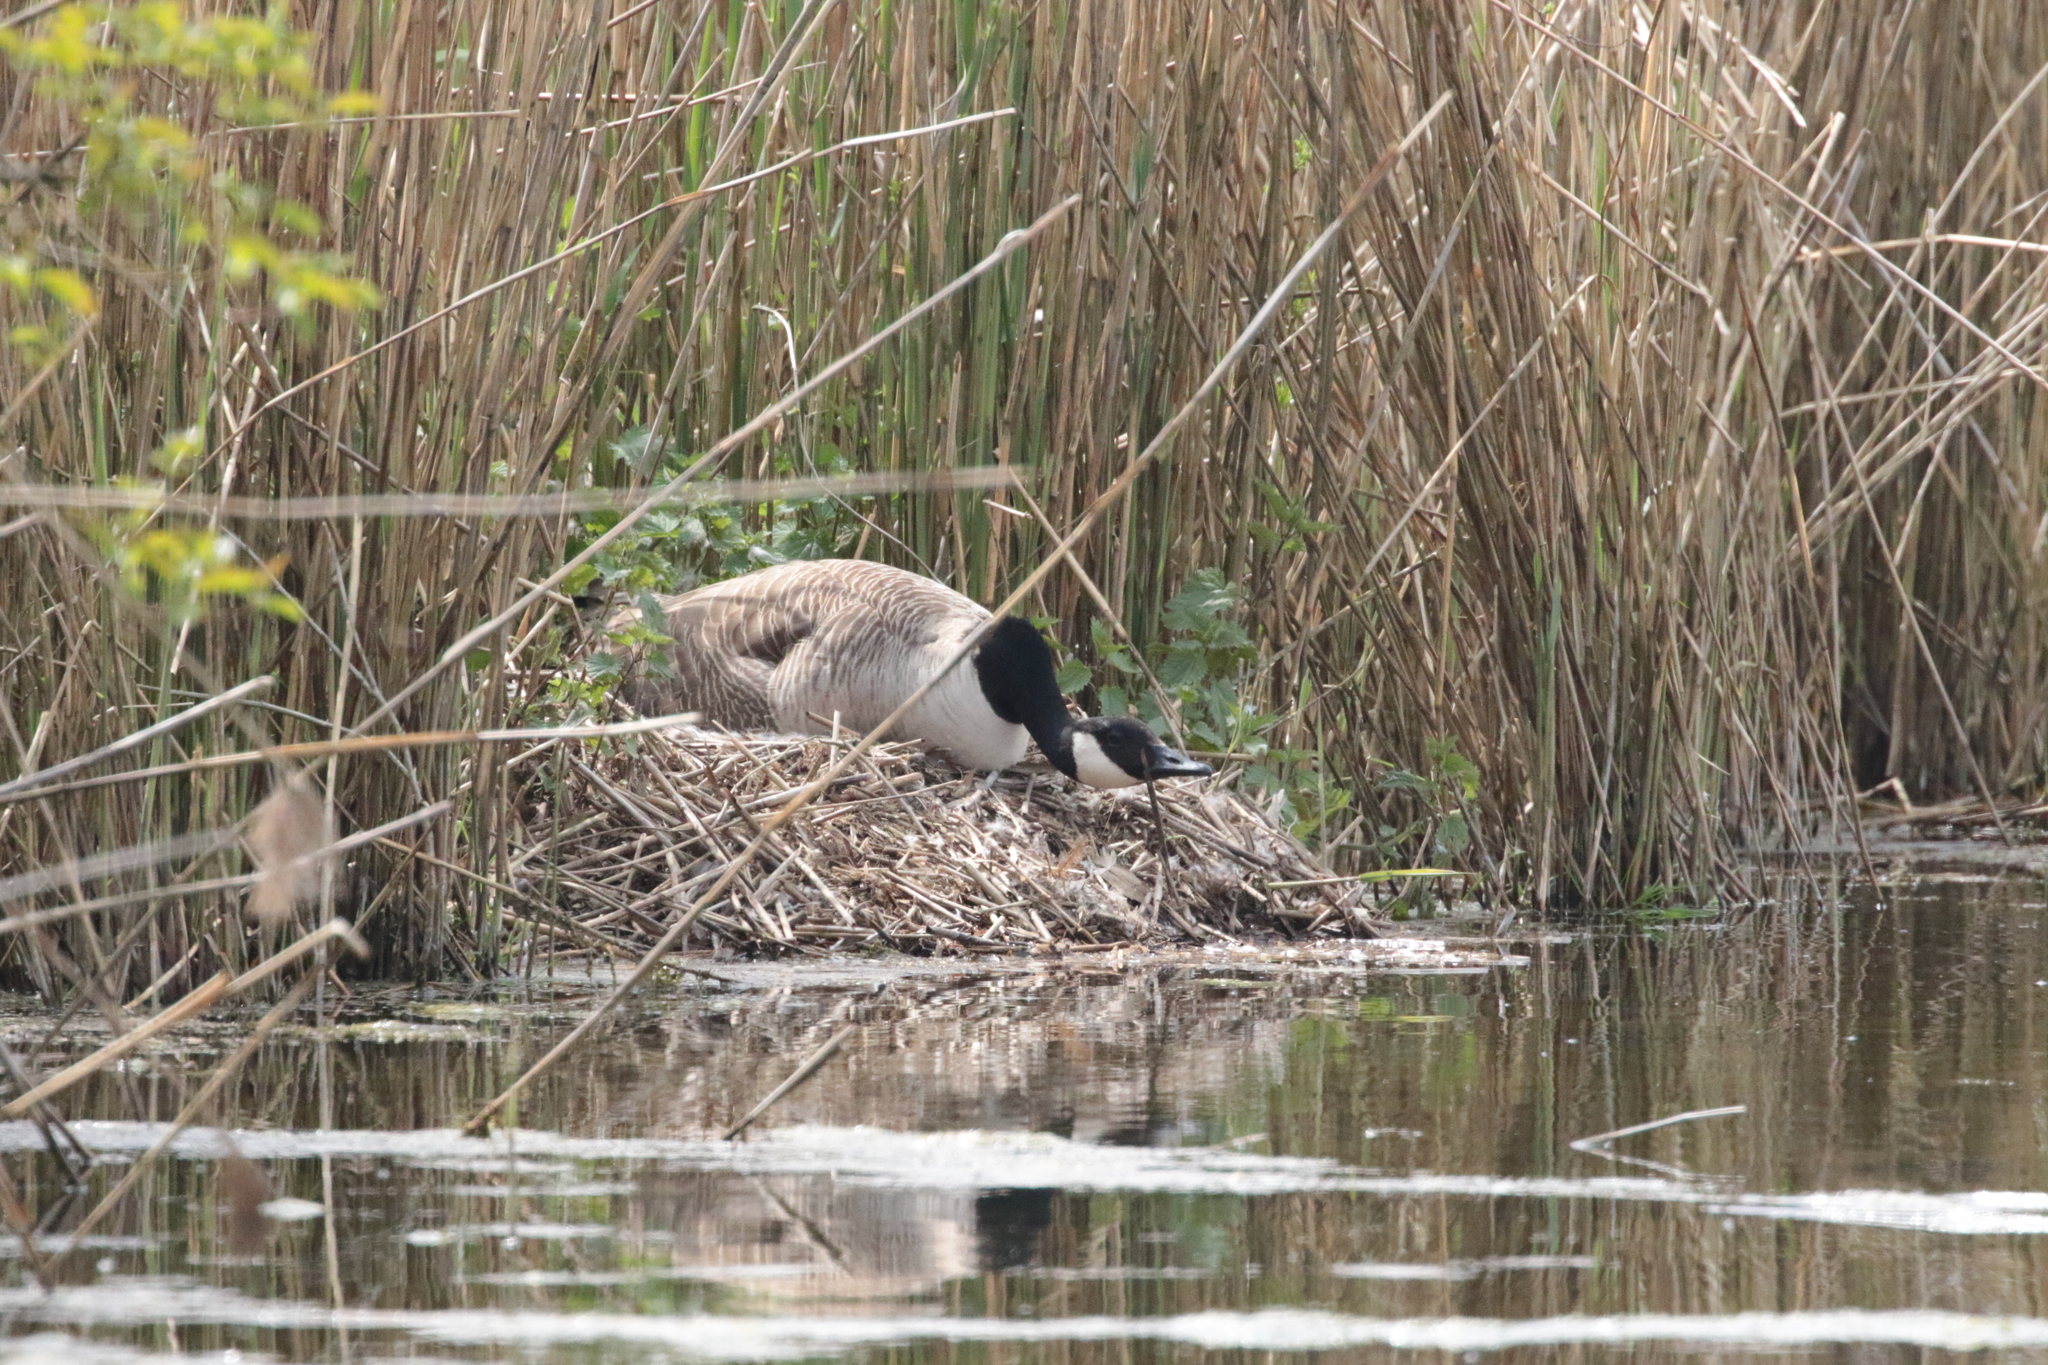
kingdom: Animalia
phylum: Chordata
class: Aves
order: Anseriformes
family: Anatidae
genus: Branta
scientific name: Branta canadensis
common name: Canada goose
